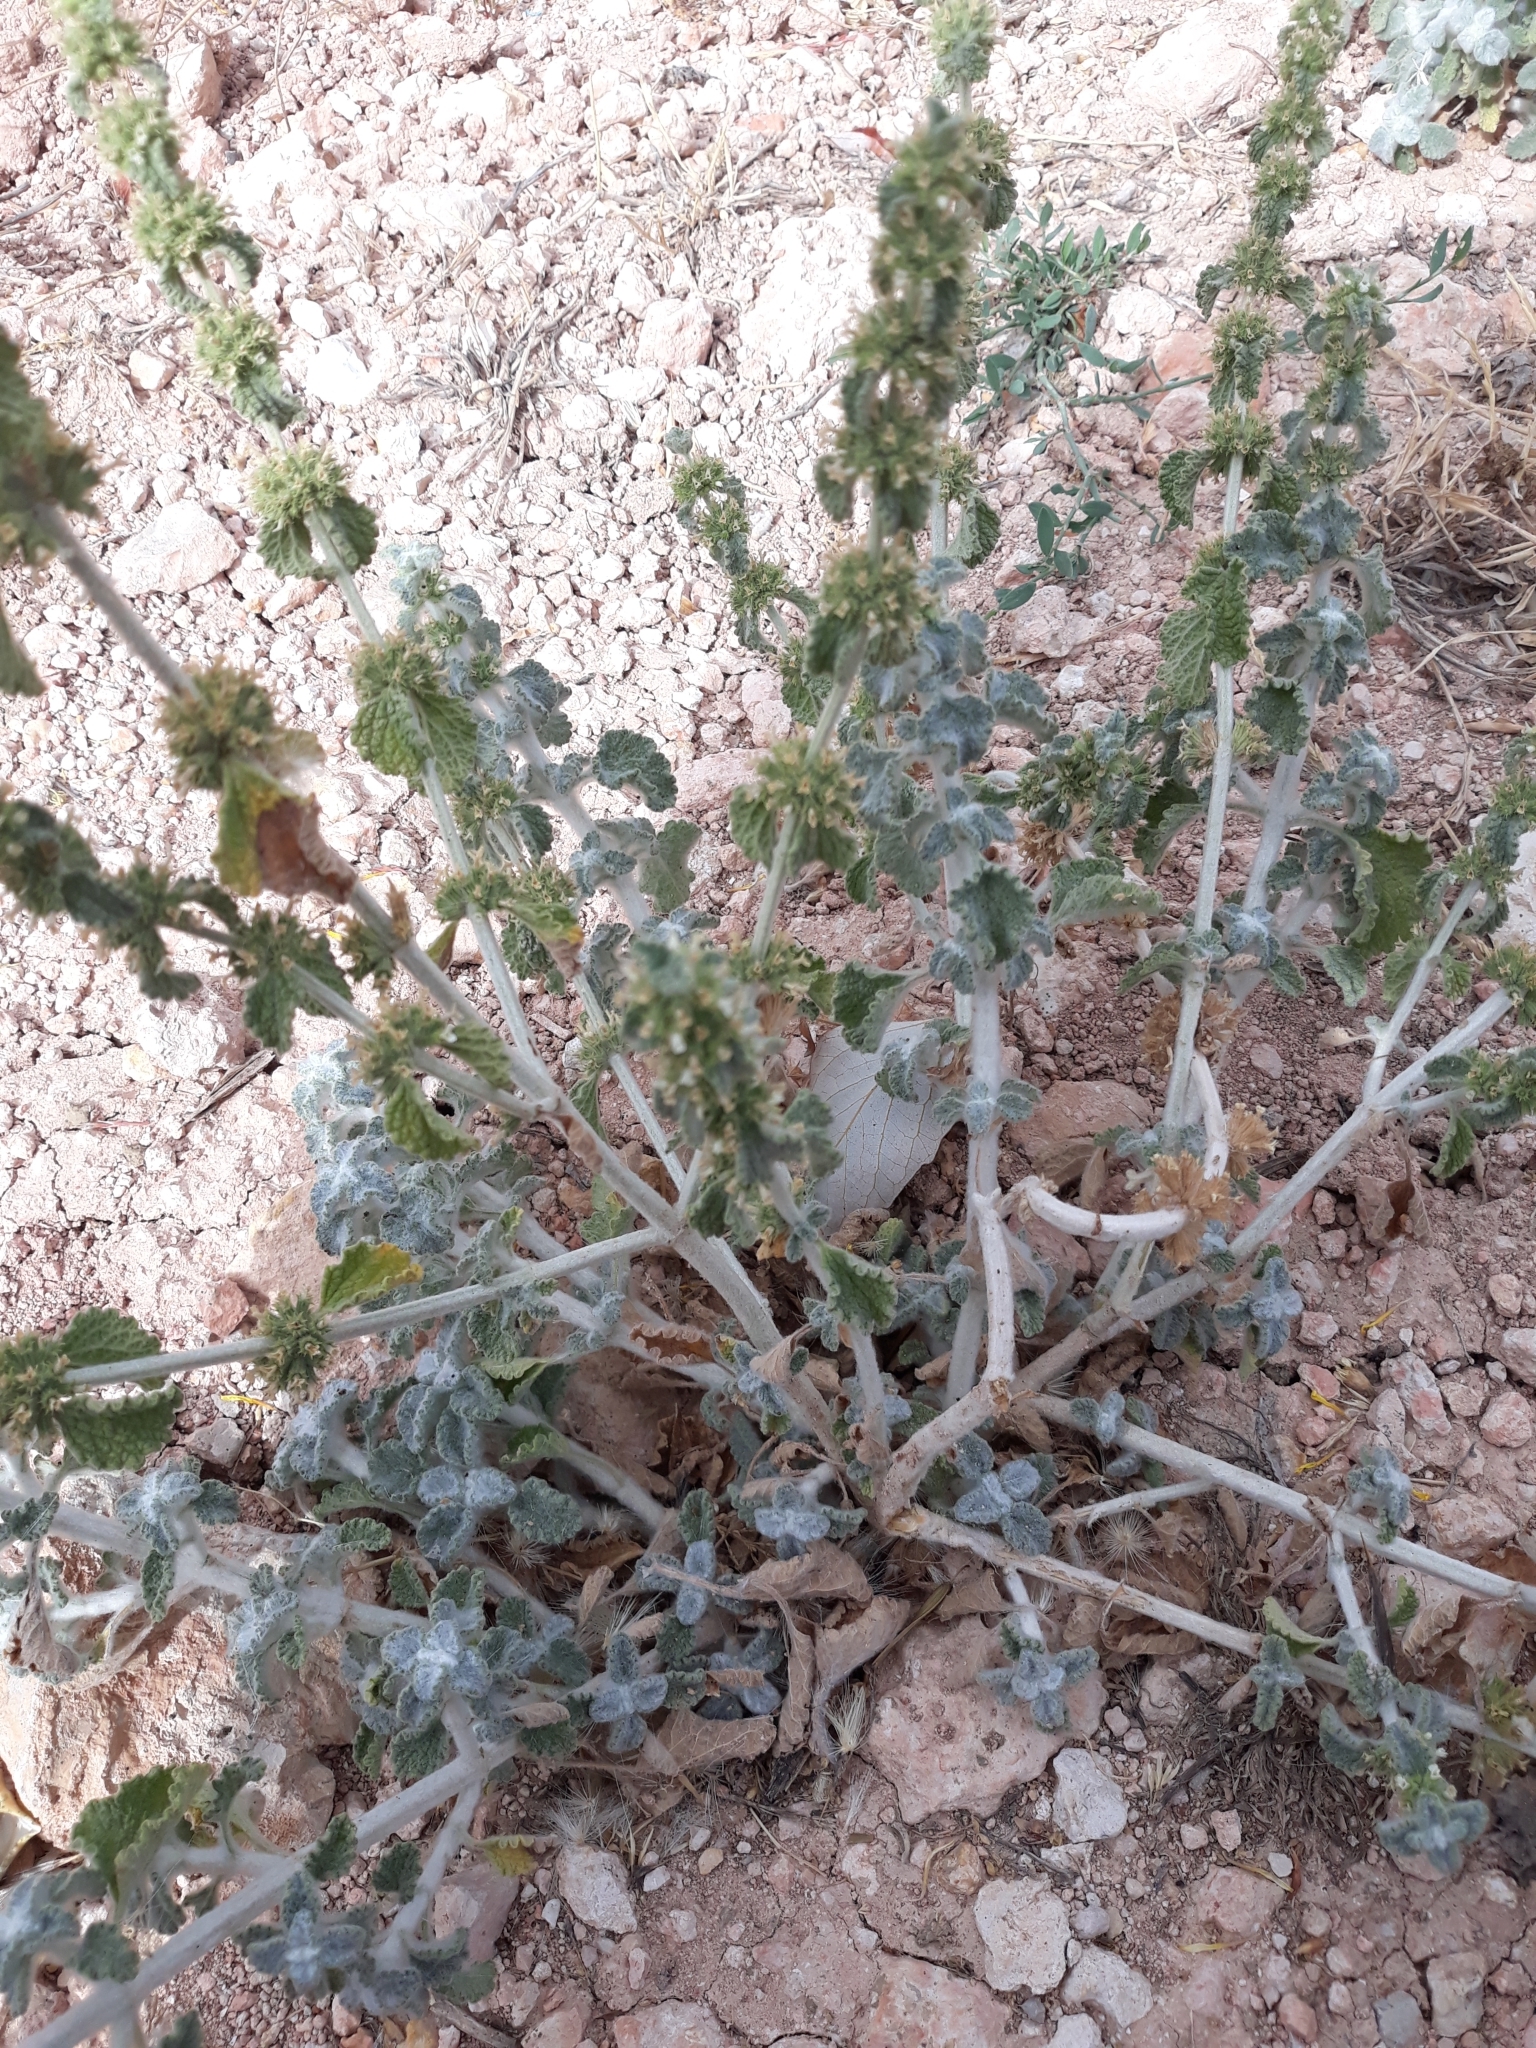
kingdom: Plantae
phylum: Tracheophyta
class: Magnoliopsida
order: Lamiales
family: Lamiaceae
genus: Marrubium
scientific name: Marrubium vulgare
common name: Horehound
